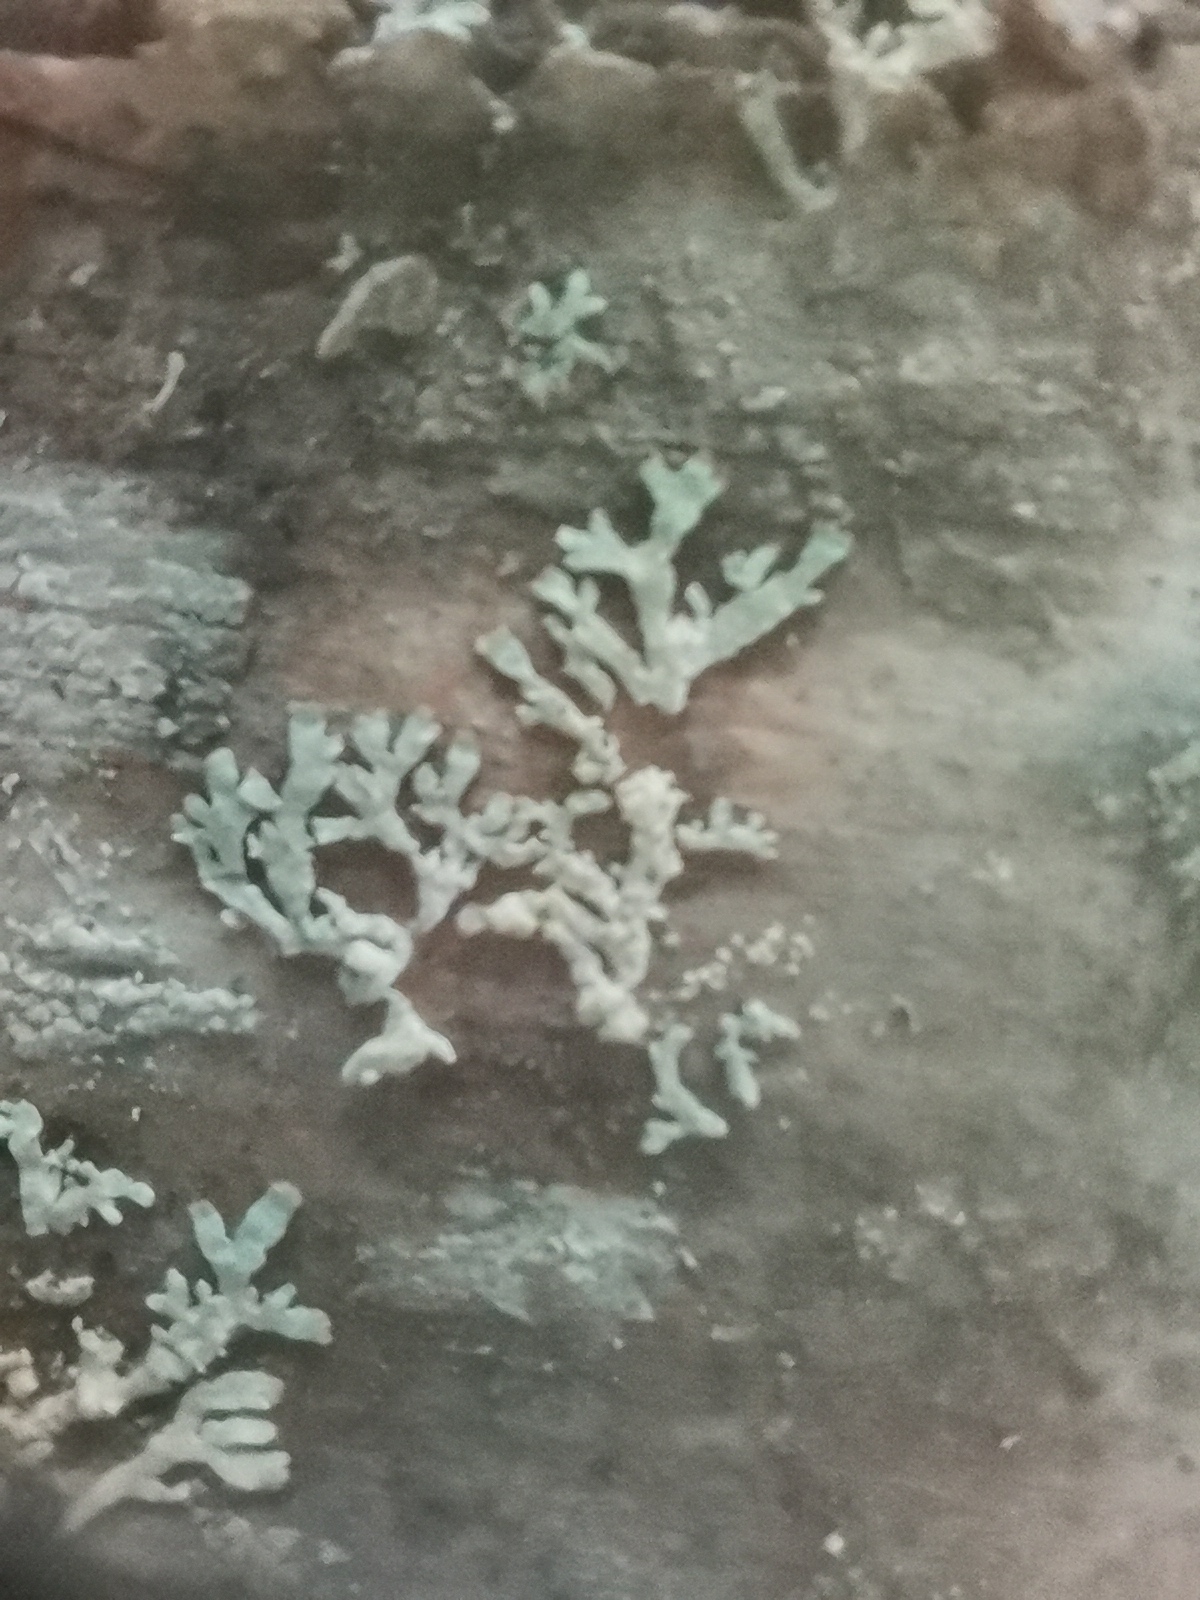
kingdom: Fungi
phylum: Ascomycota
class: Lecanoromycetes
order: Lecanorales
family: Parmeliaceae
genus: Parmeliopsis
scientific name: Parmeliopsis ambigua
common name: Green starburst lichen
